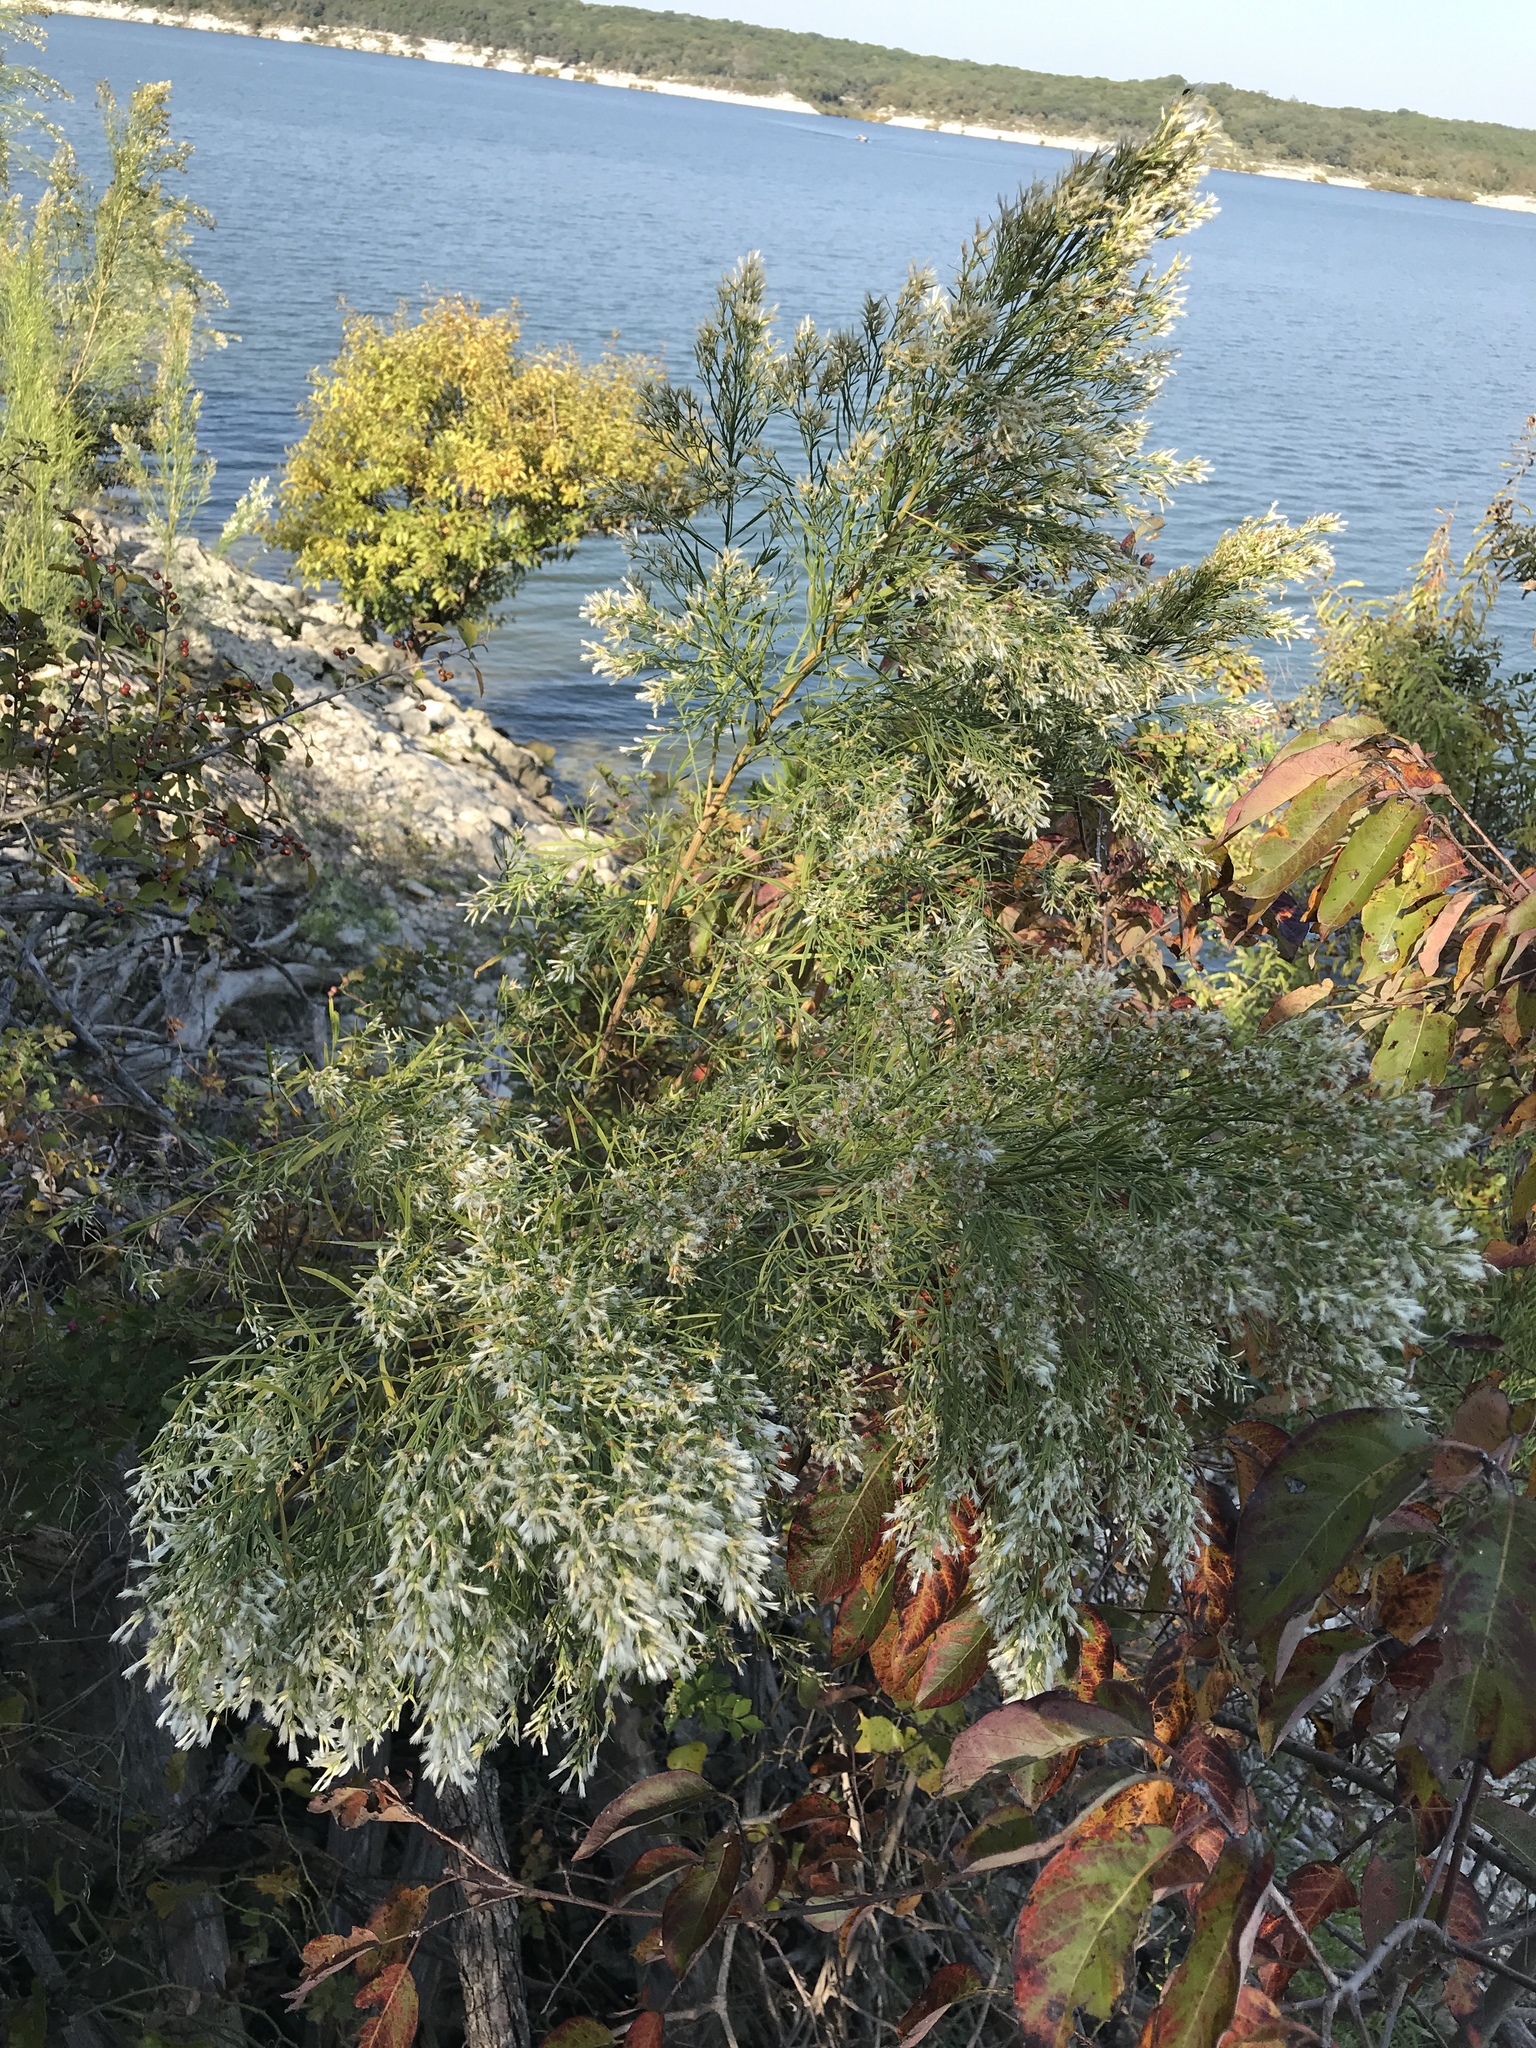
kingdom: Plantae
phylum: Tracheophyta
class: Magnoliopsida
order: Asterales
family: Asteraceae
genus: Baccharis
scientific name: Baccharis neglecta
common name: Roosevelt-weed
